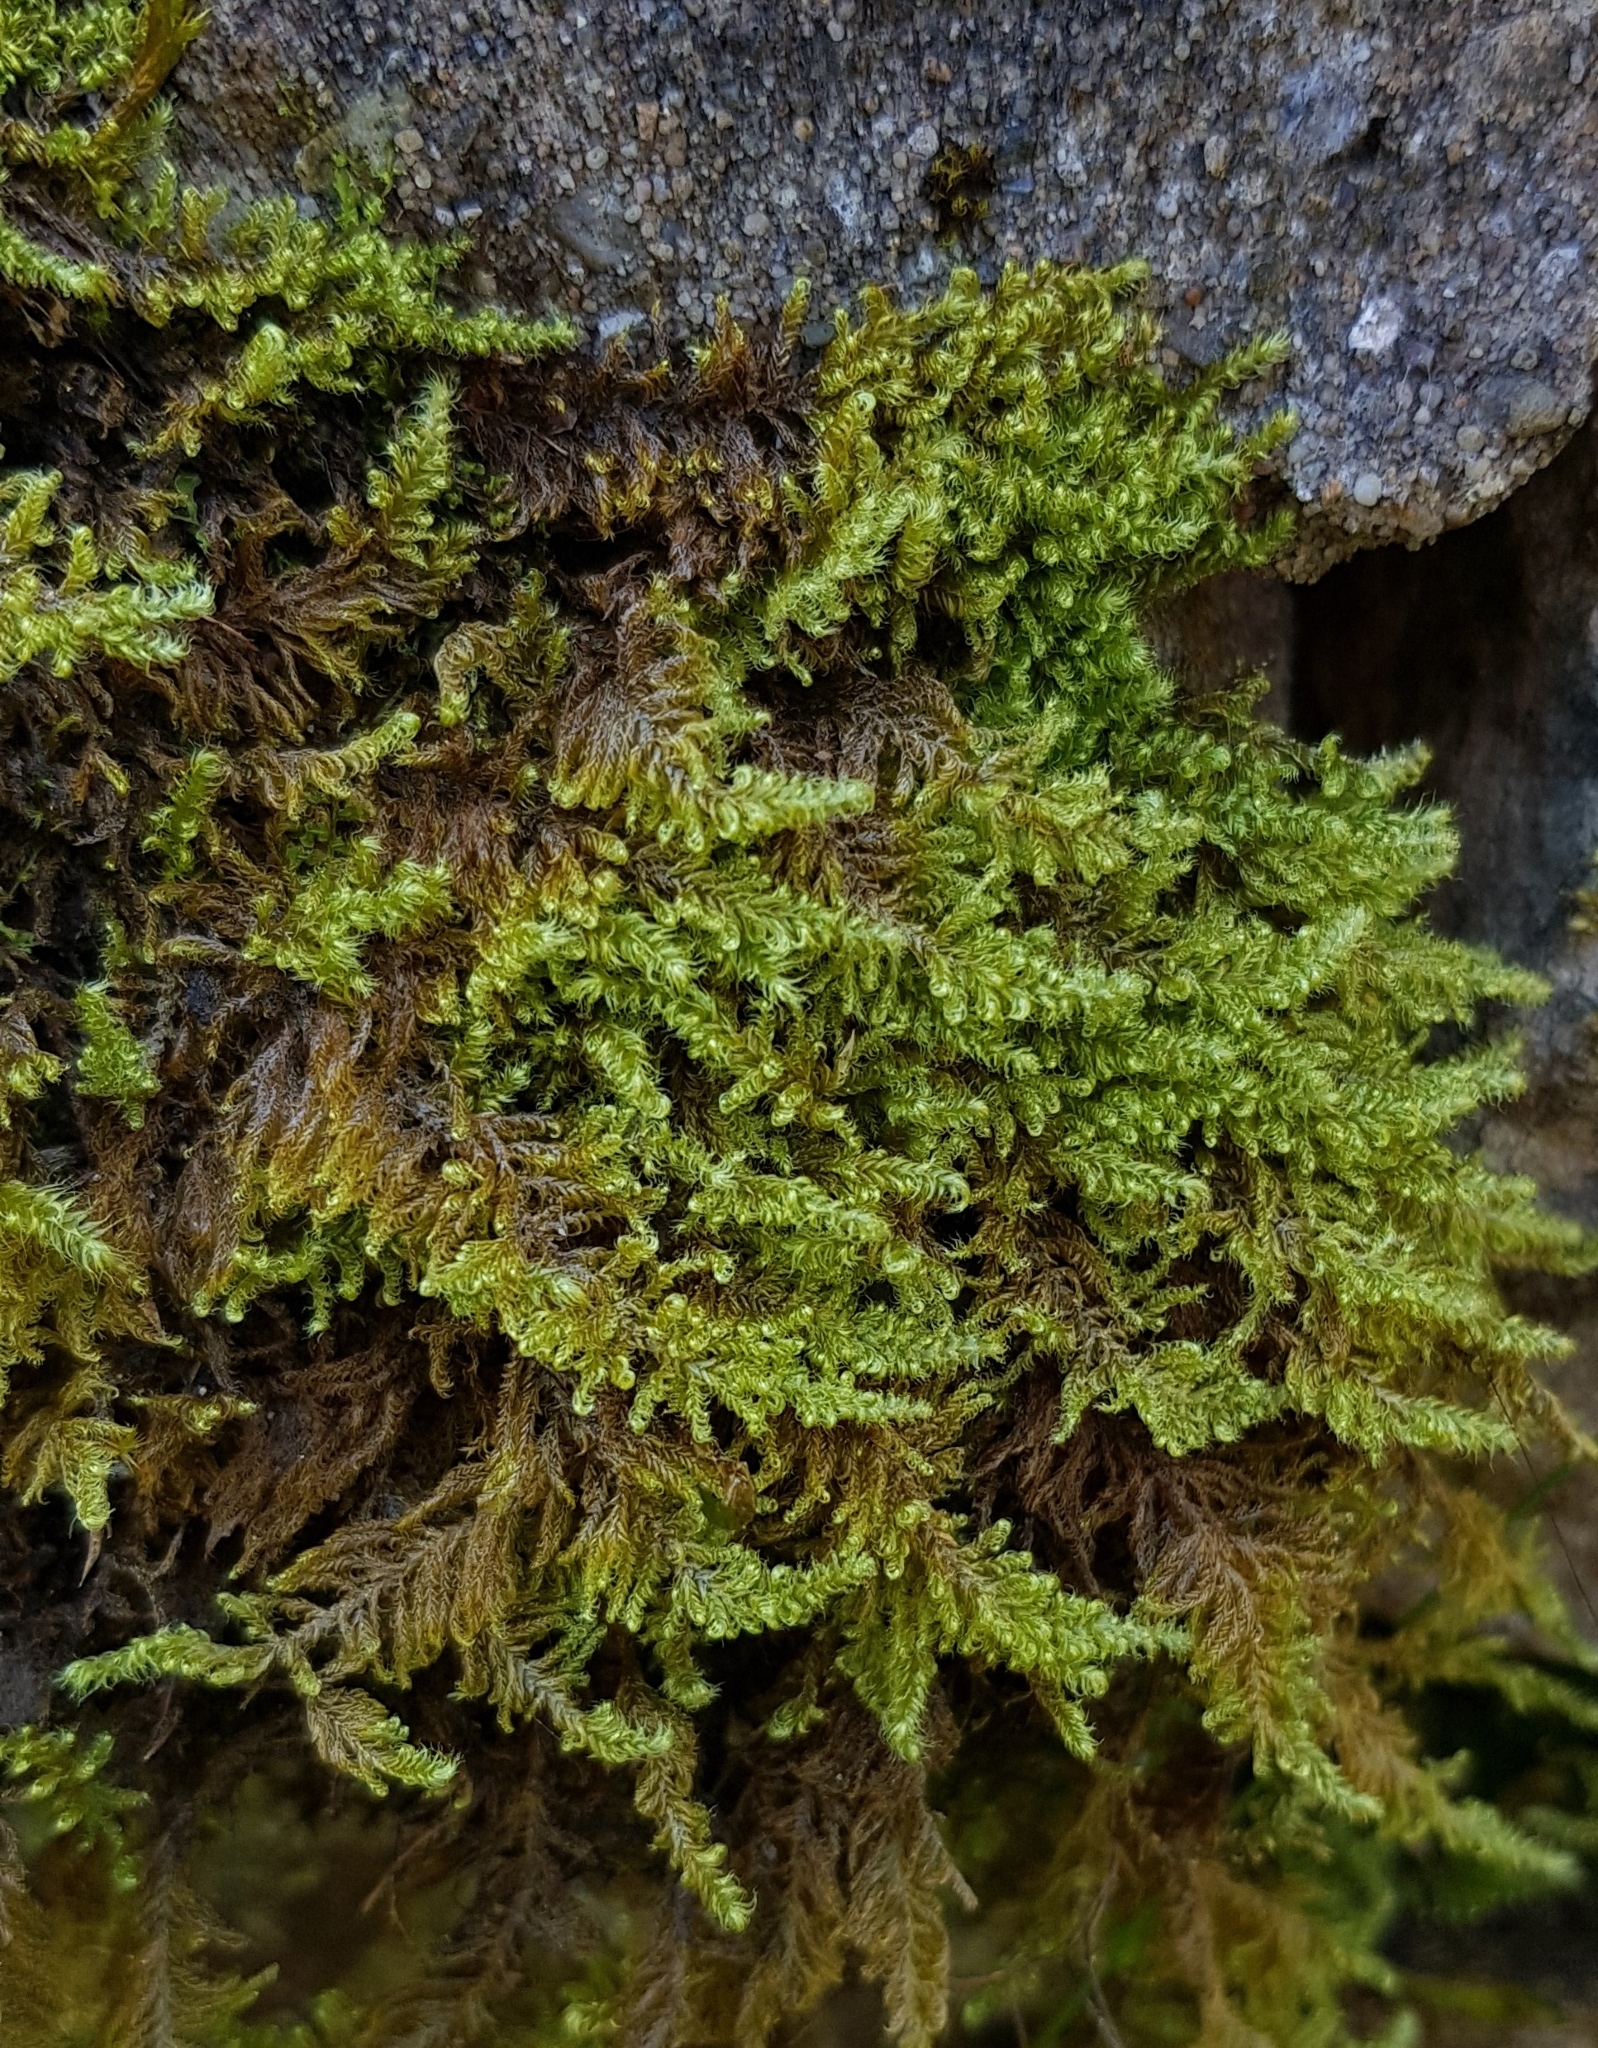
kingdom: Plantae
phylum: Bryophyta
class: Bryopsida
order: Hypnales
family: Myuriaceae
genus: Ctenidium
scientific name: Ctenidium molluscum
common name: Chalk comb-moss
